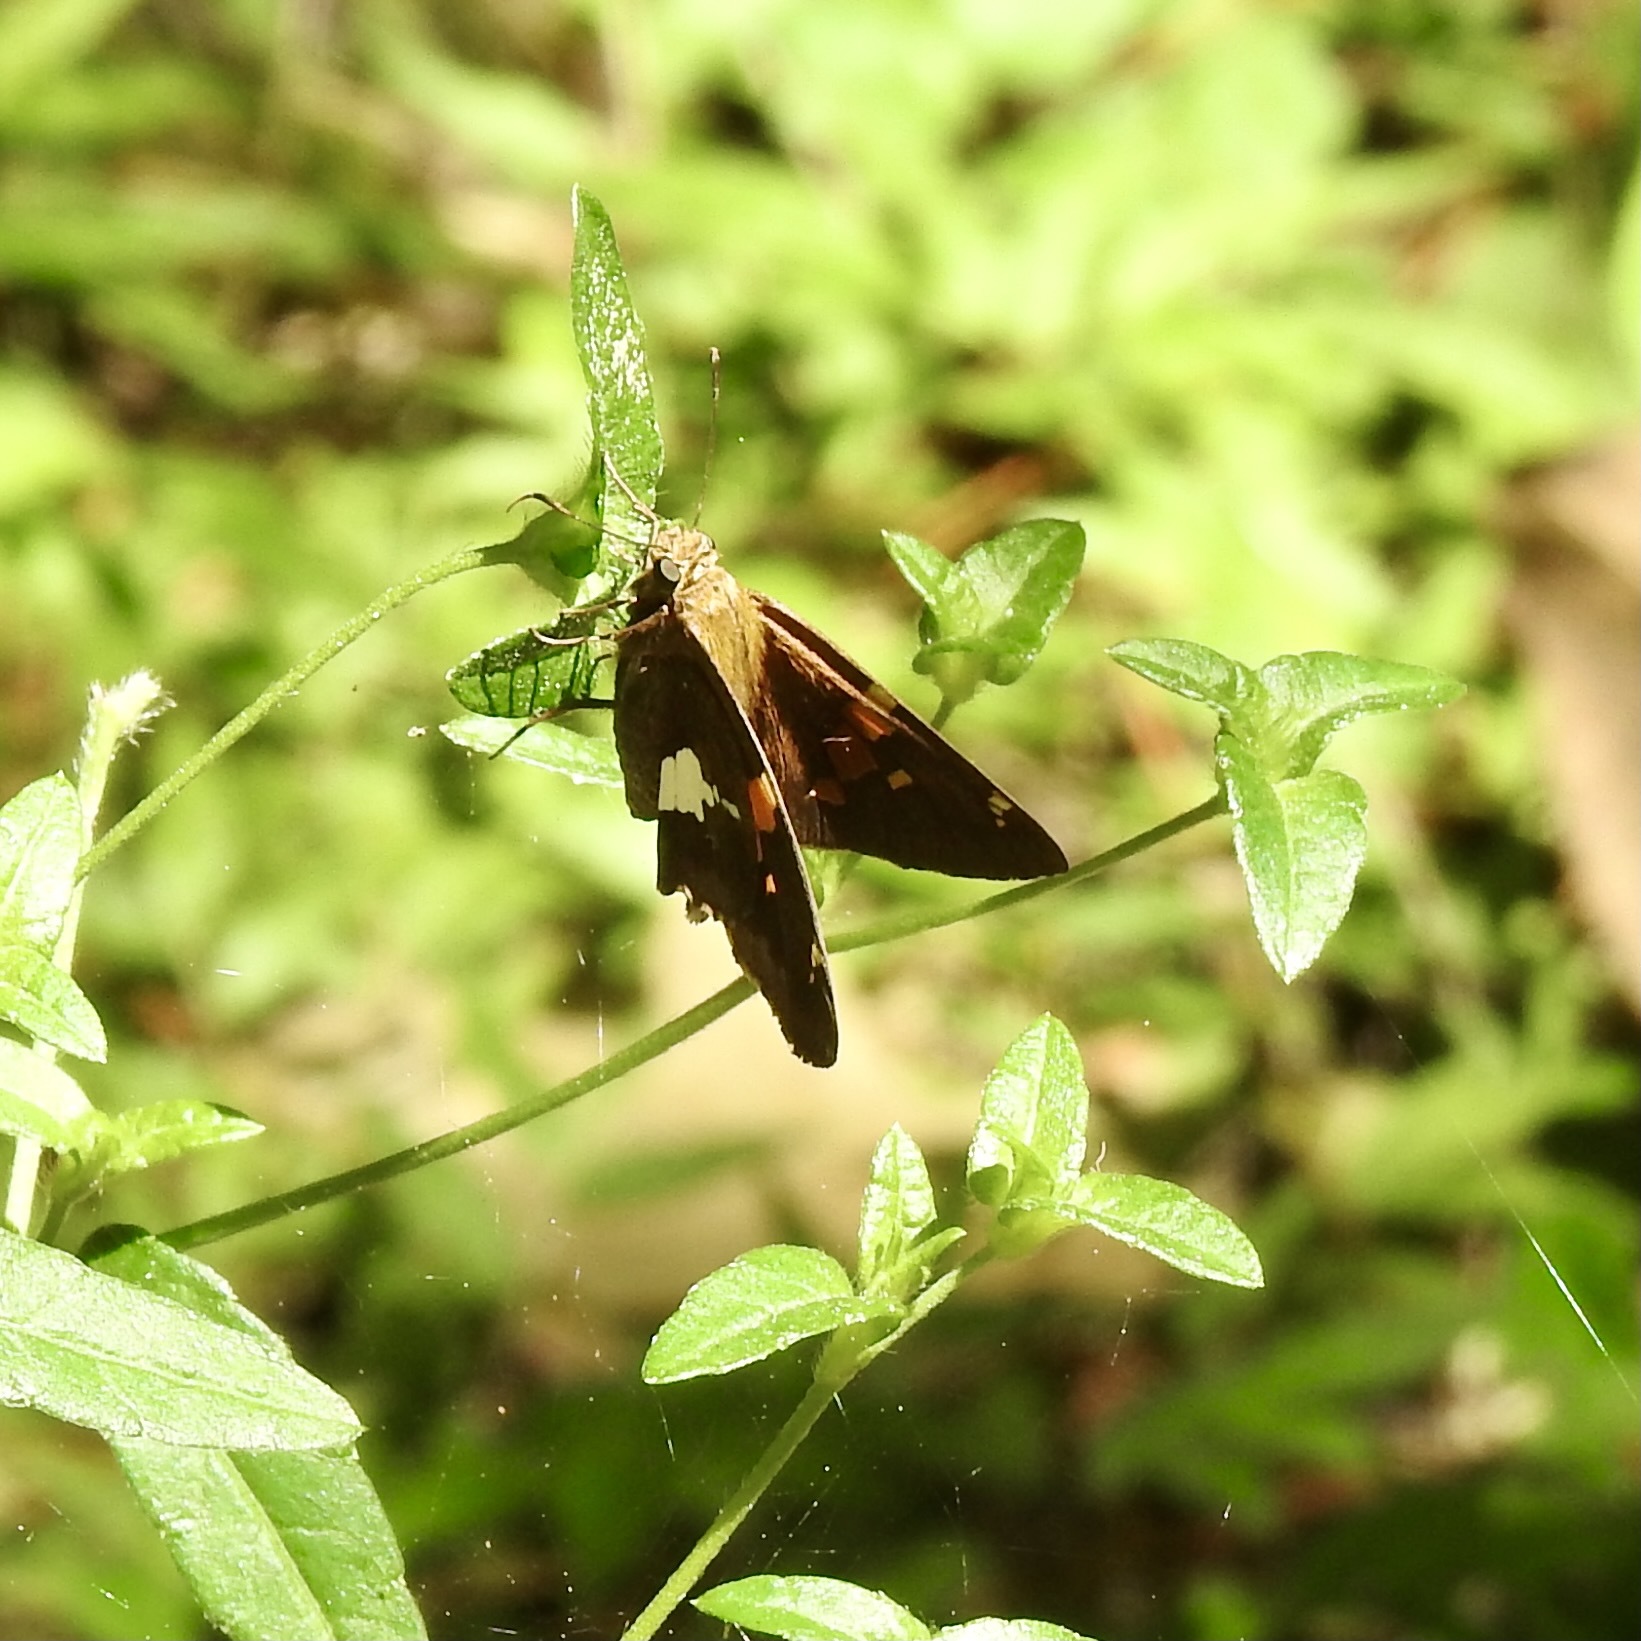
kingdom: Animalia
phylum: Arthropoda
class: Insecta
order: Lepidoptera
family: Hesperiidae
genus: Epargyreus
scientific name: Epargyreus clarus
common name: Silver-spotted skipper
